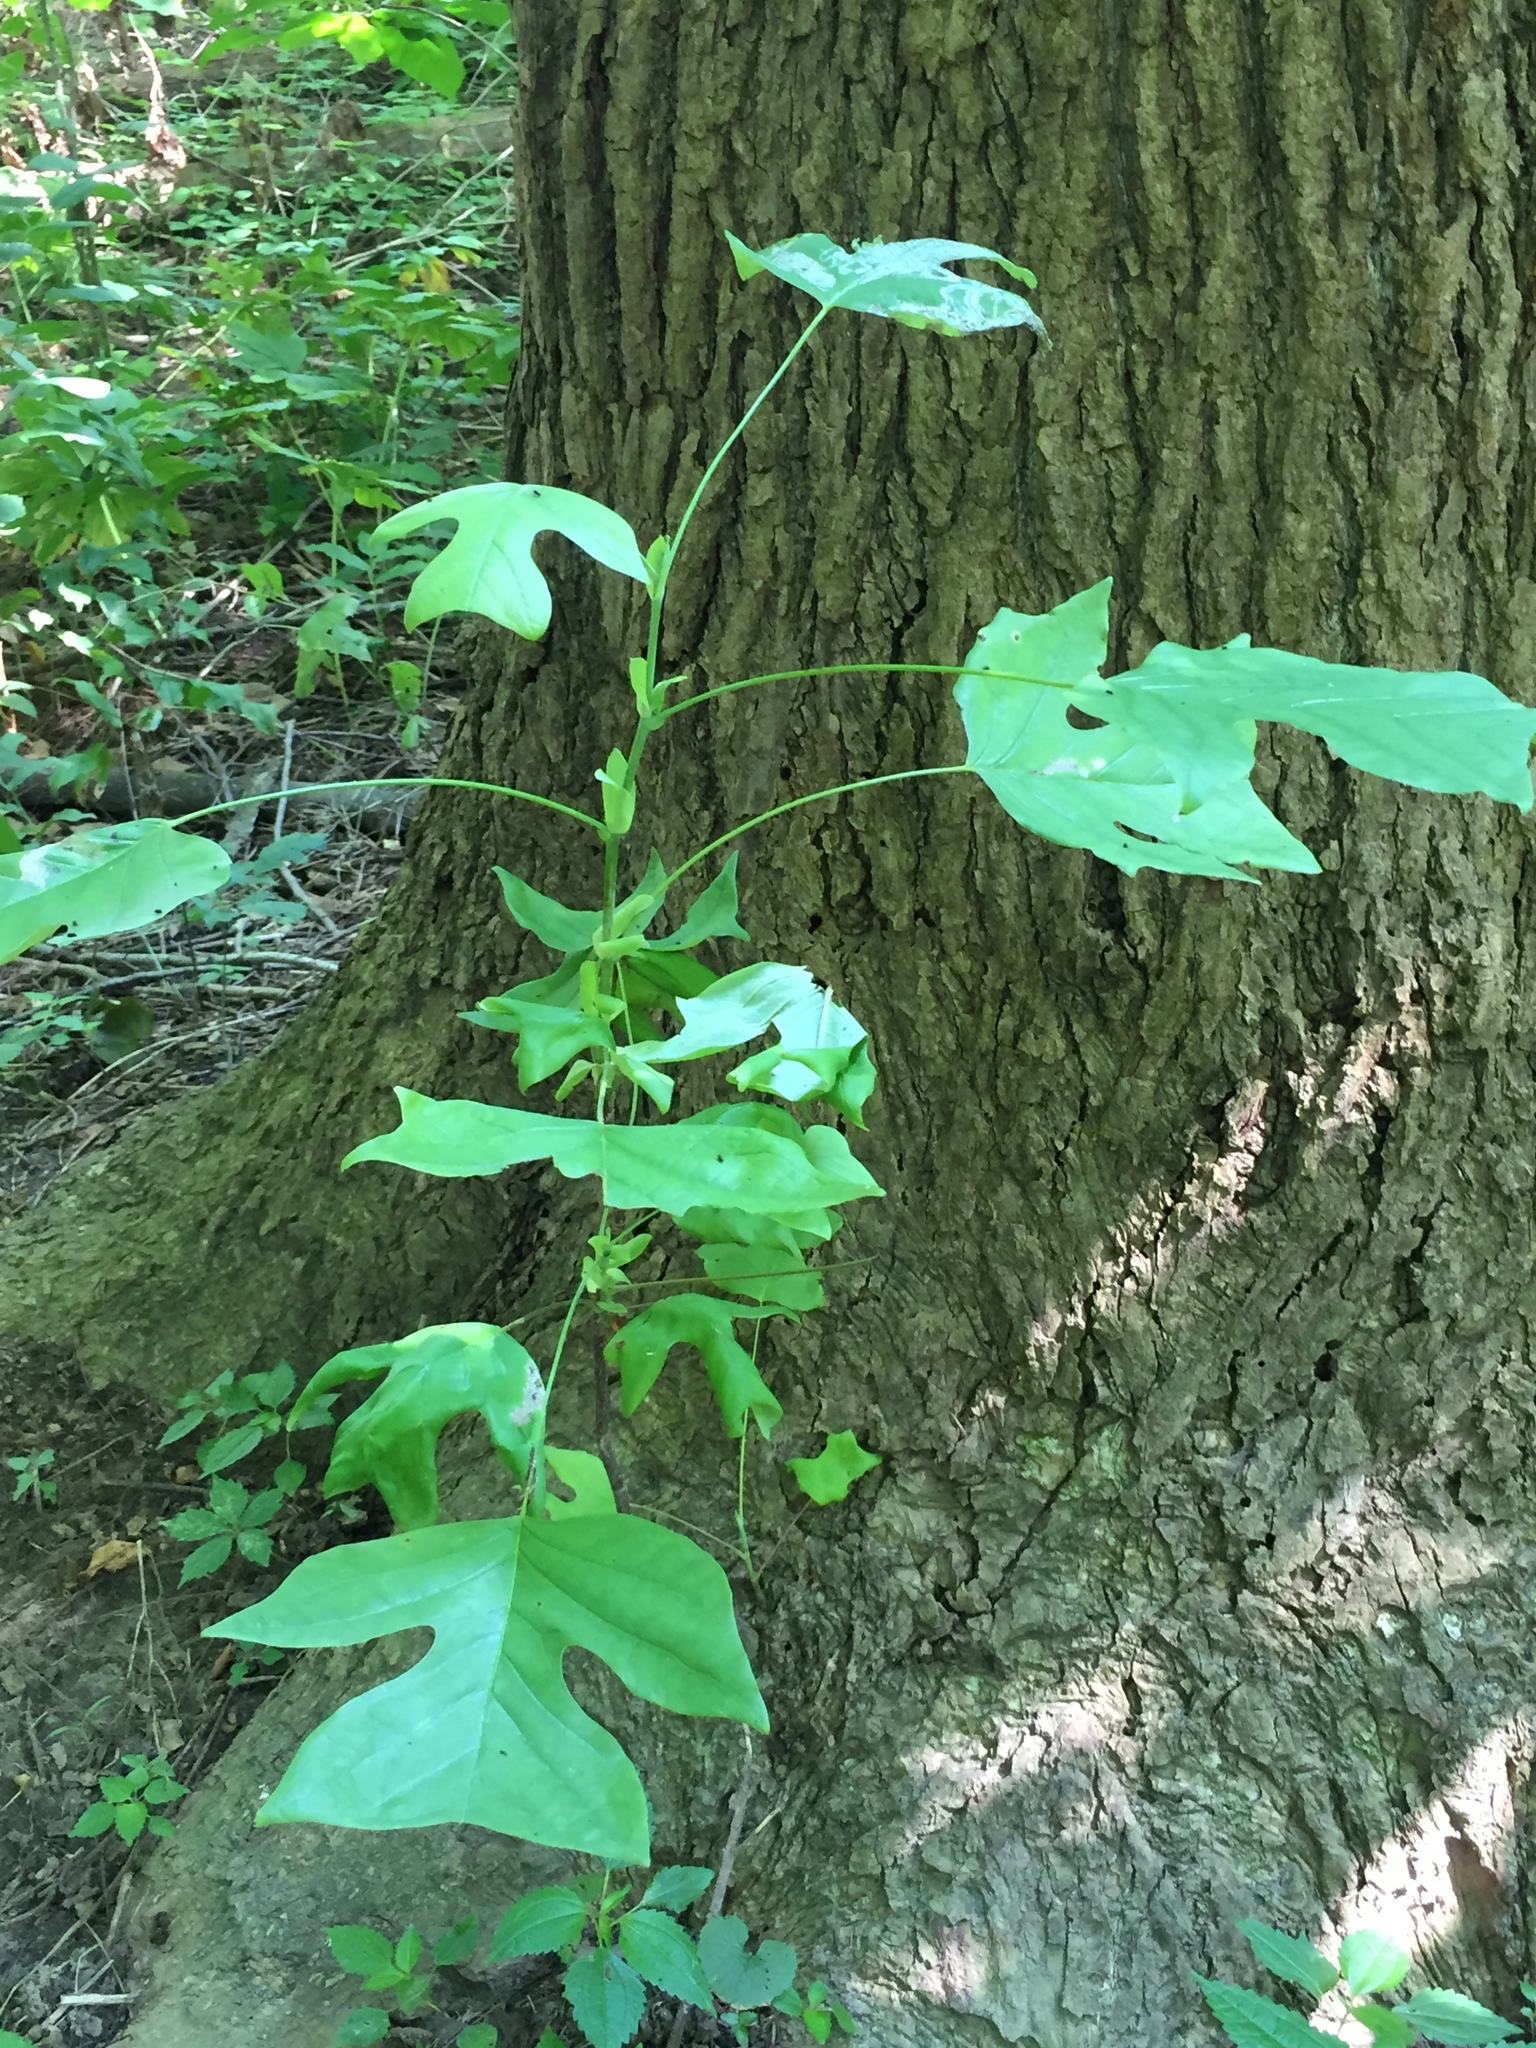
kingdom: Plantae
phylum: Tracheophyta
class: Magnoliopsida
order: Magnoliales
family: Magnoliaceae
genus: Liriodendron
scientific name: Liriodendron tulipifera
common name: Tulip tree
